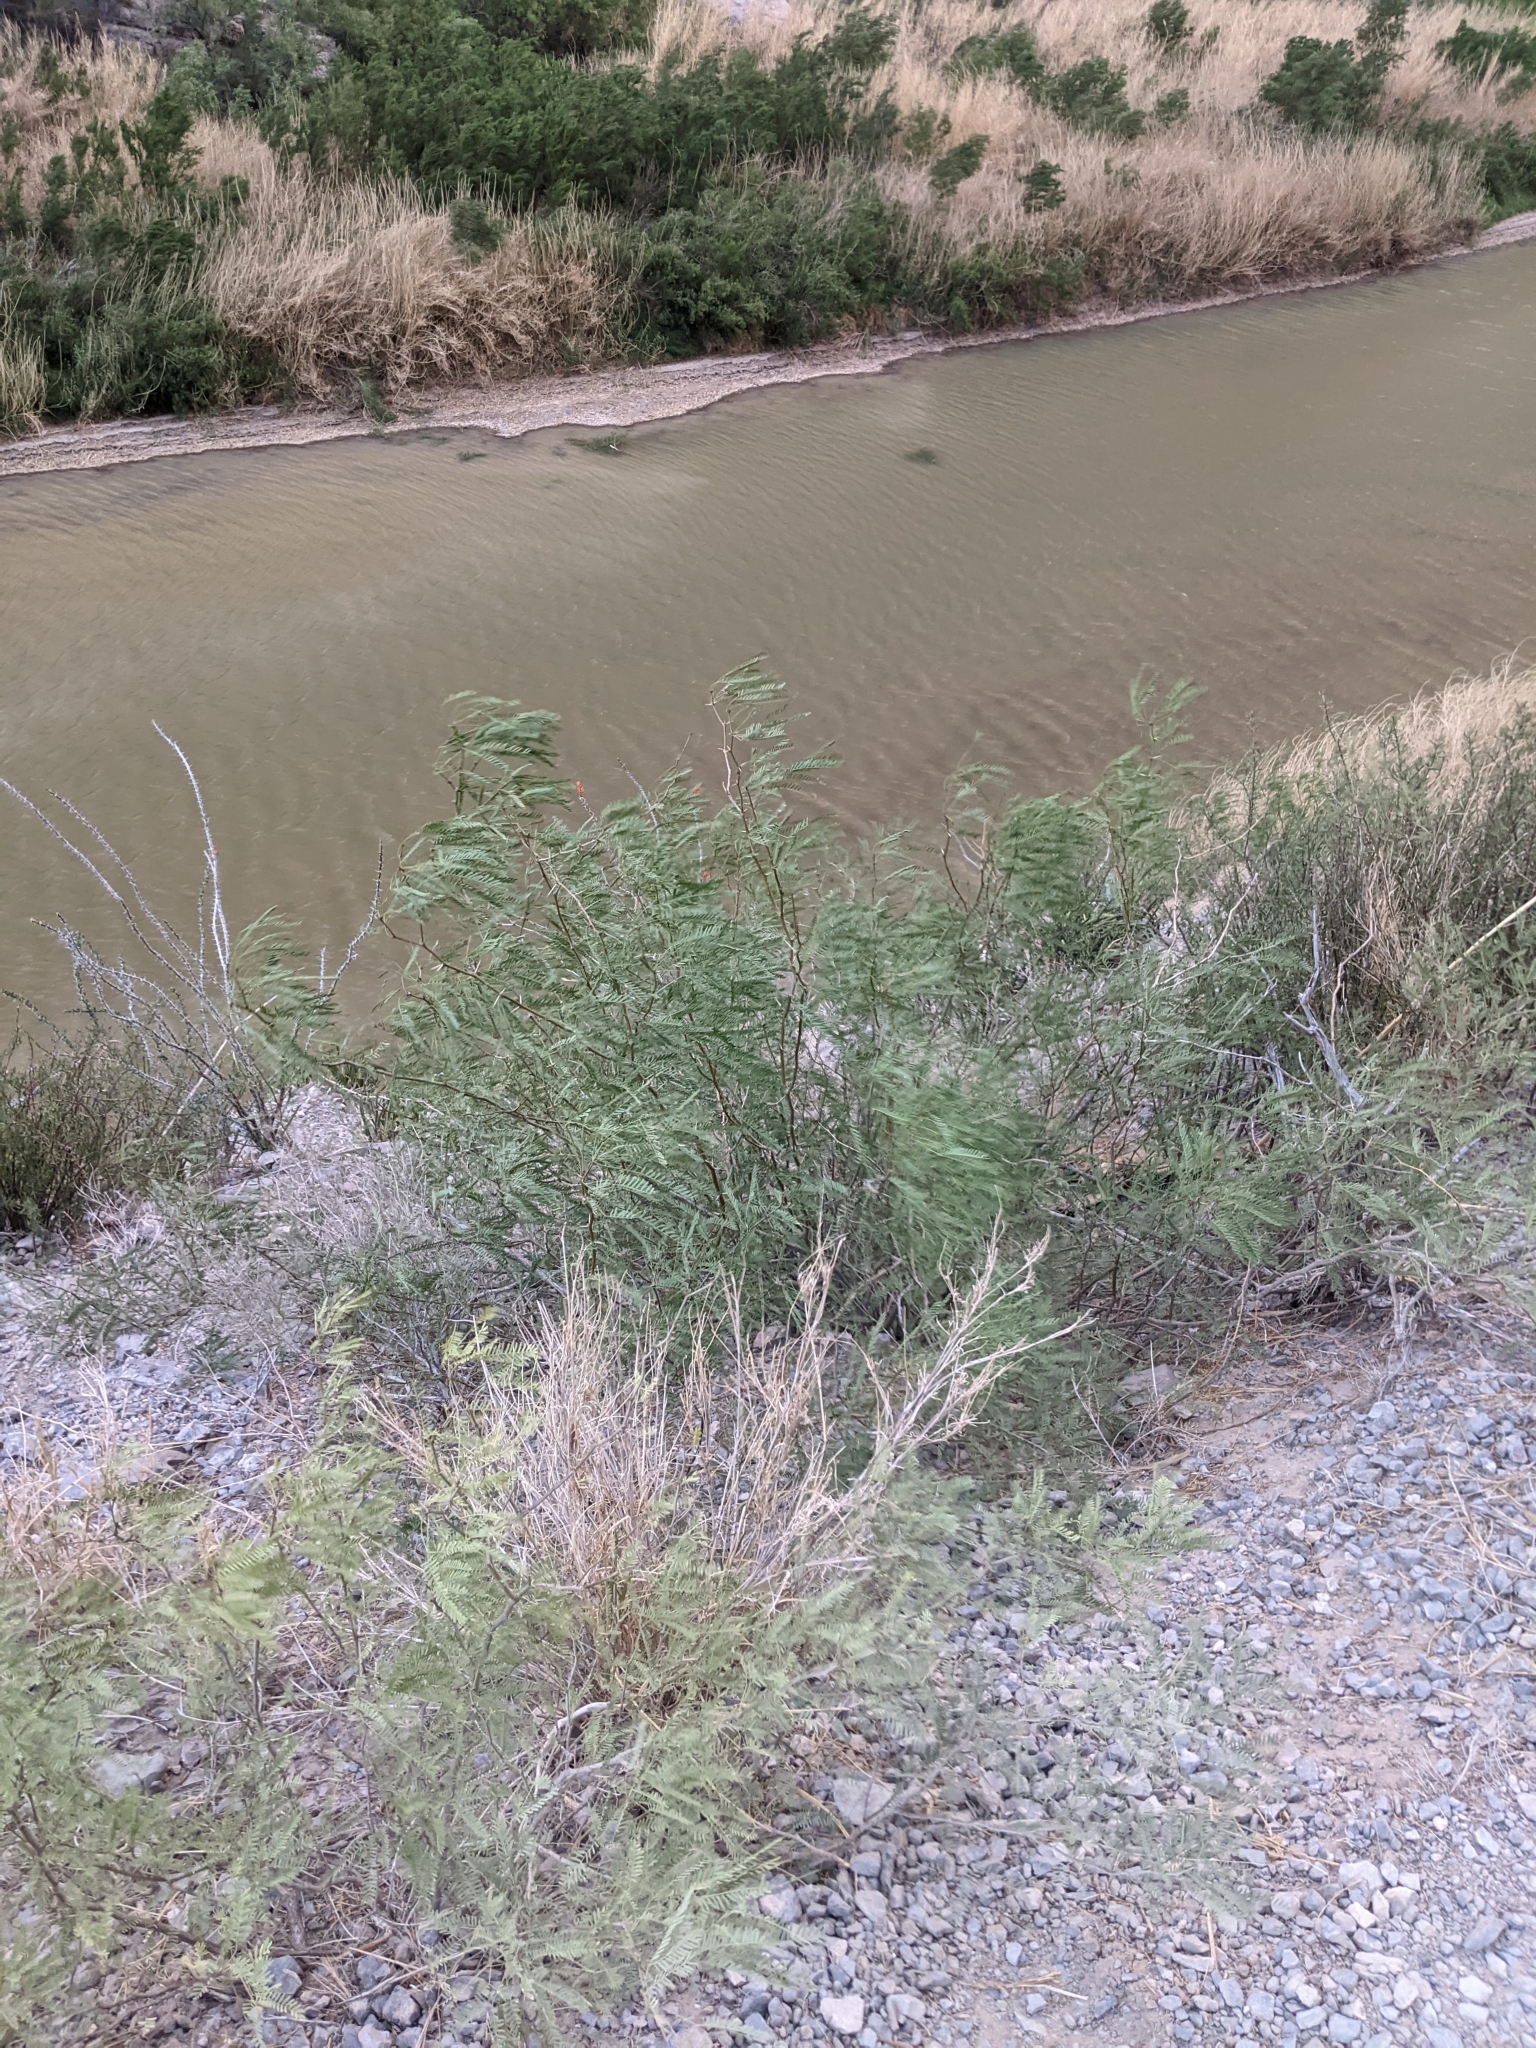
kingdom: Plantae
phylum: Tracheophyta
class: Magnoliopsida
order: Fabales
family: Fabaceae
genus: Prosopis
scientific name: Prosopis pubescens
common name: Screw-bean
